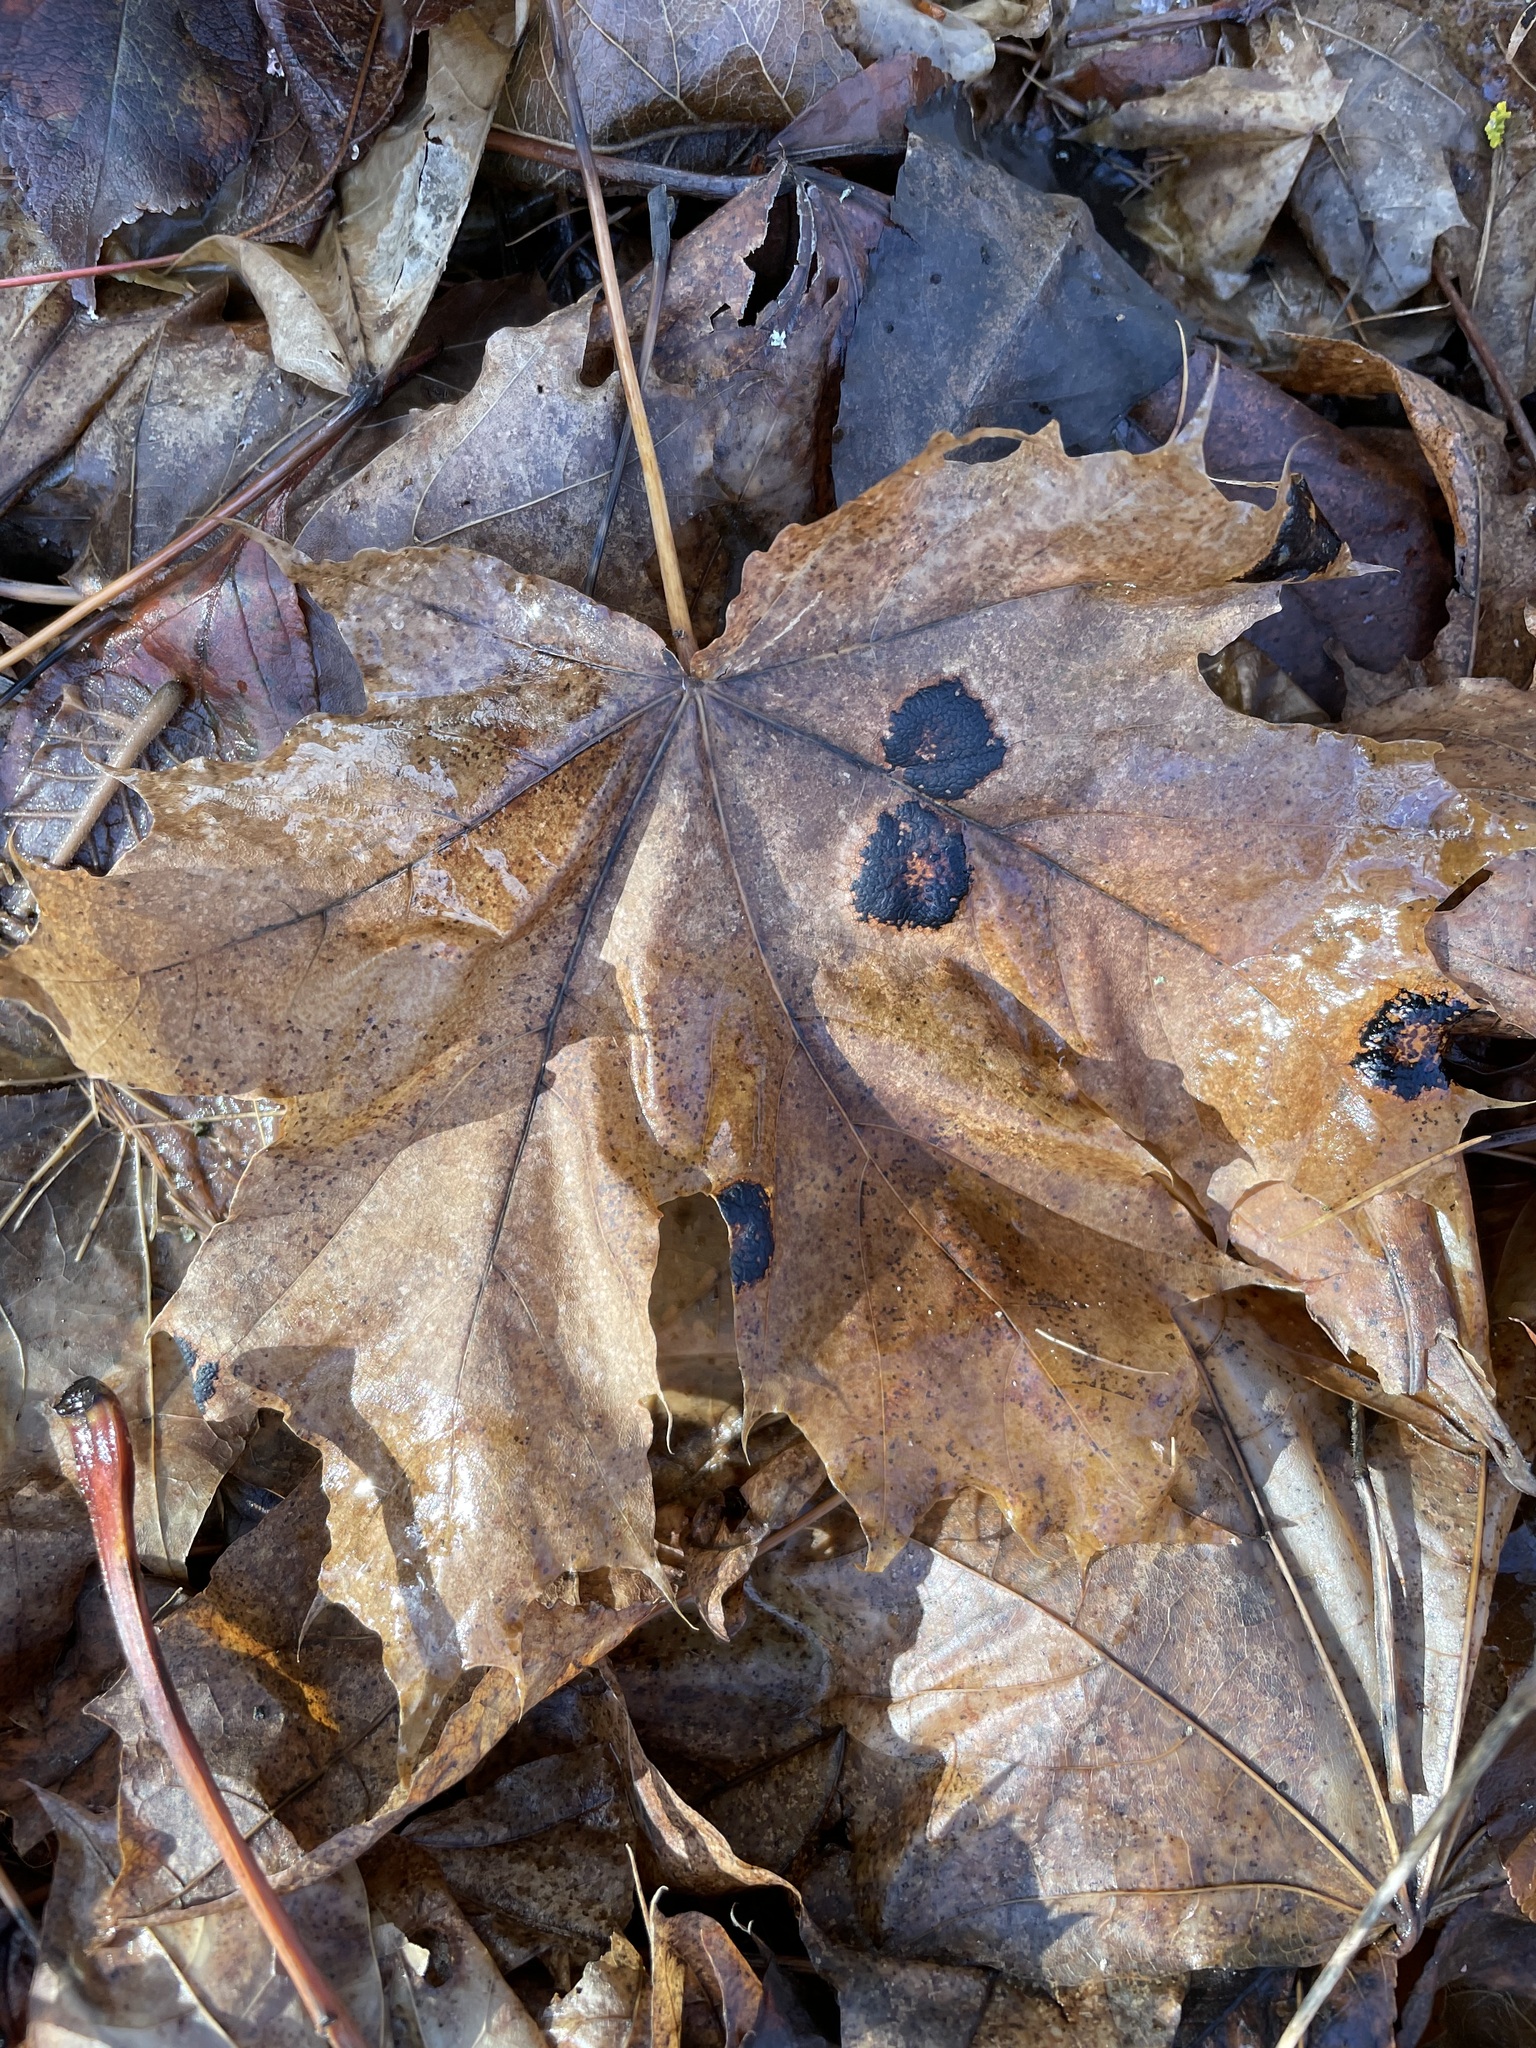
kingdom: Plantae
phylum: Tracheophyta
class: Magnoliopsida
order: Sapindales
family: Sapindaceae
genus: Acer
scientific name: Acer platanoides
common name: Norway maple
